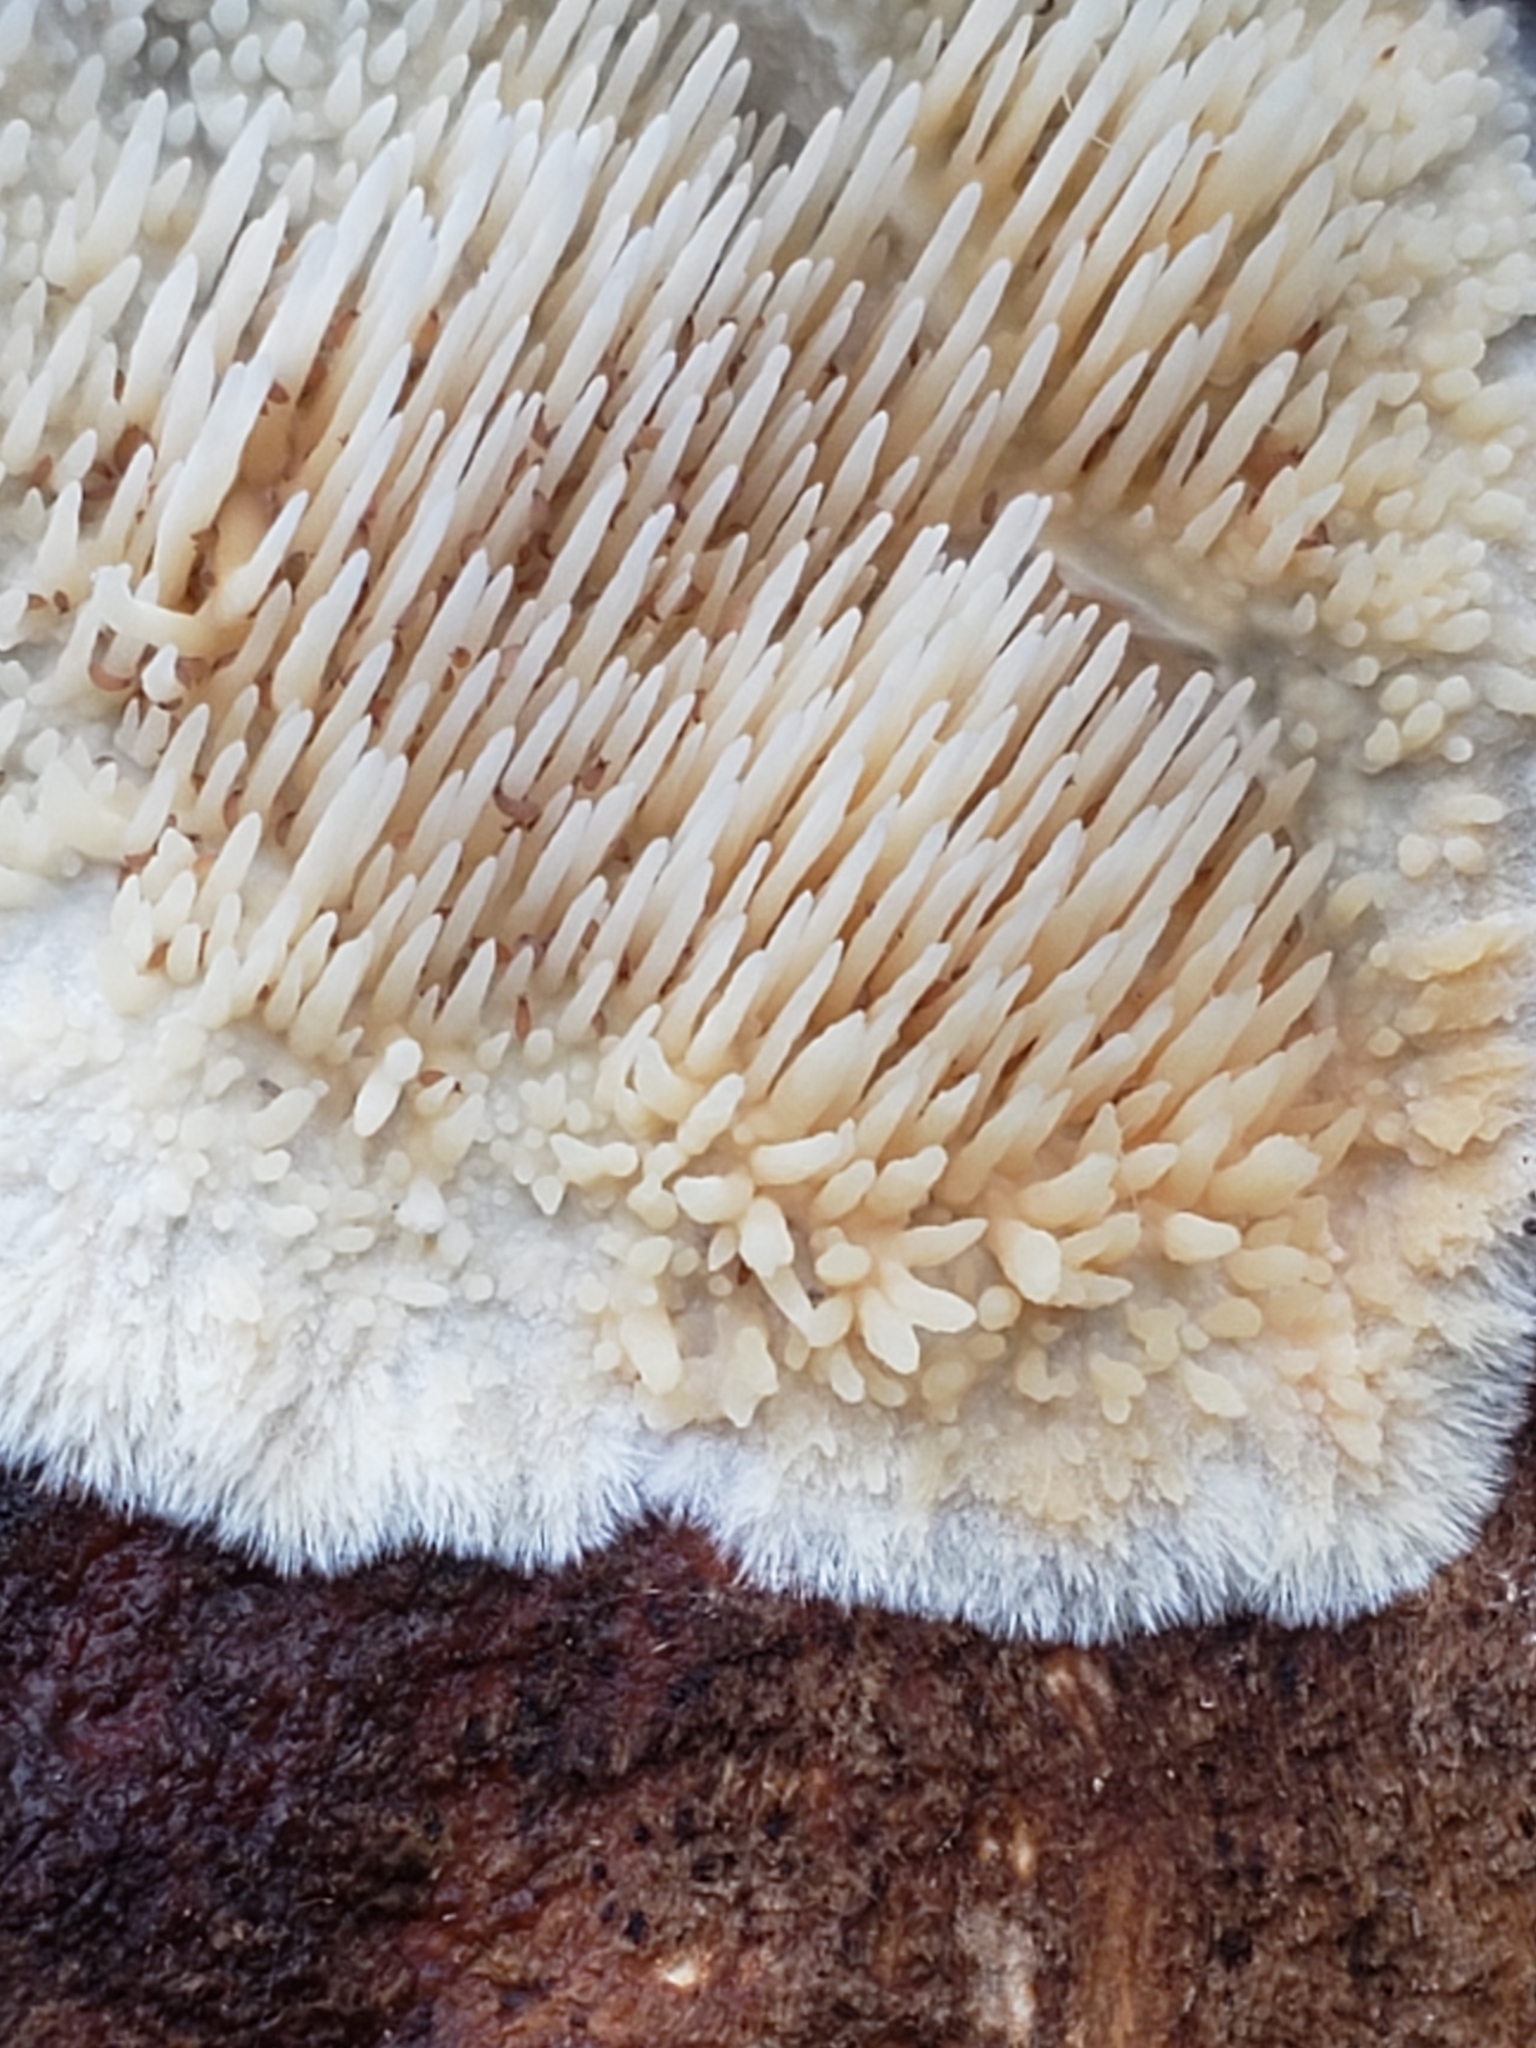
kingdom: Fungi
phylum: Basidiomycota
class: Agaricomycetes
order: Agaricales
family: Radulomycetaceae
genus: Radulomyces
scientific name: Radulomyces copelandii
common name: Asian beauty
